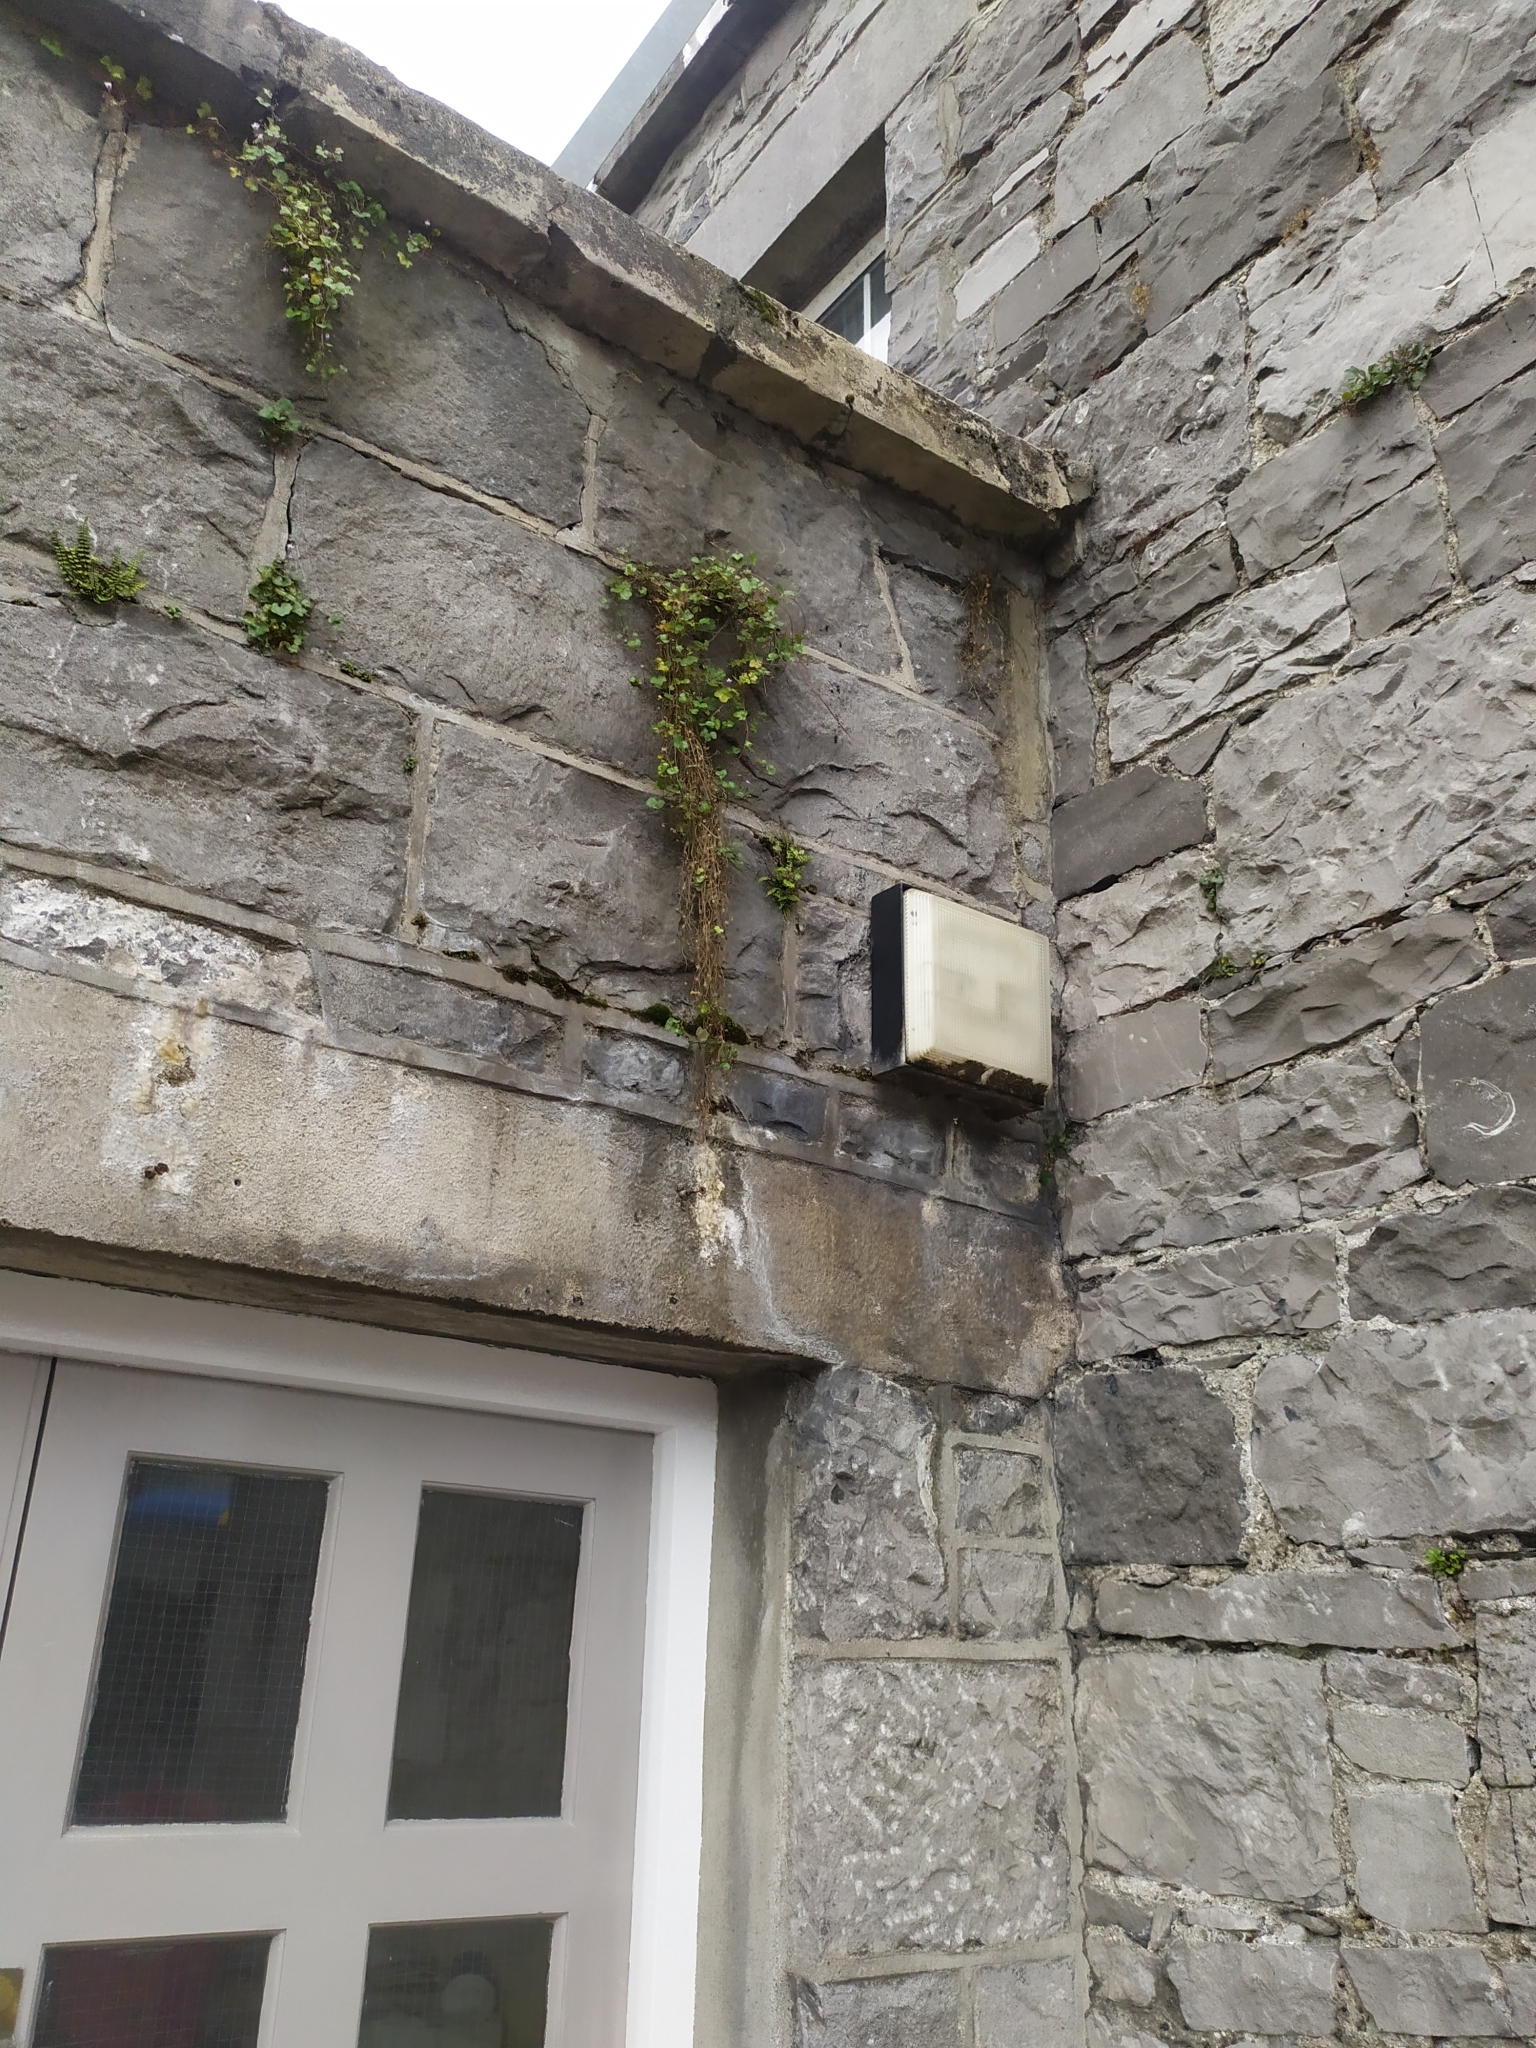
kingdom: Plantae
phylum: Tracheophyta
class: Magnoliopsida
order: Lamiales
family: Plantaginaceae
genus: Cymbalaria
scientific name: Cymbalaria muralis
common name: Ivy-leaved toadflax
